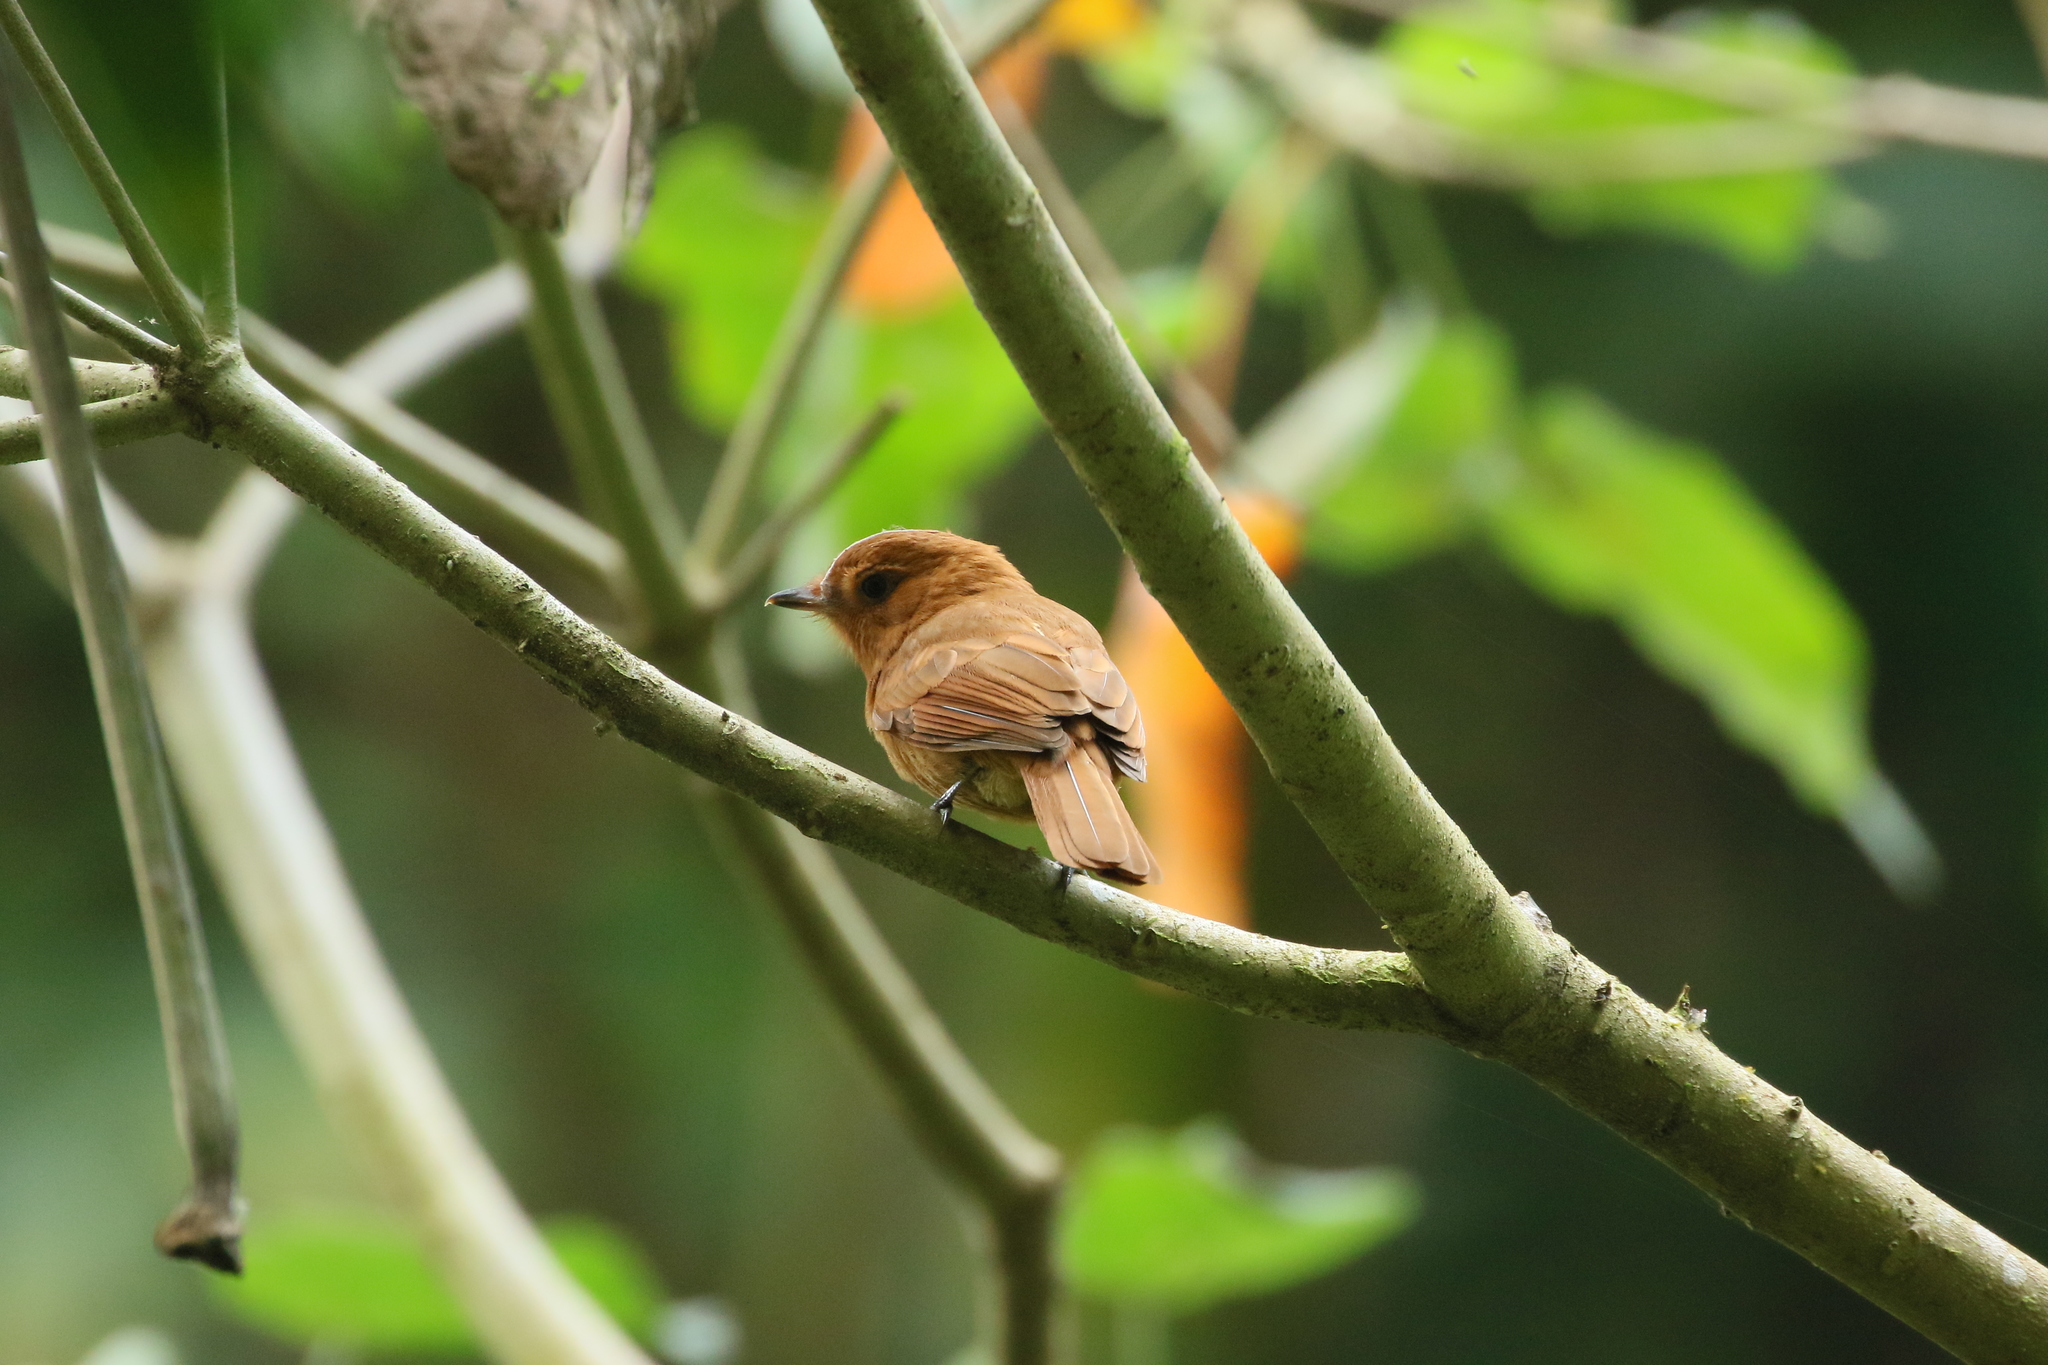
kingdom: Animalia
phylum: Chordata
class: Aves
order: Passeriformes
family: Tyrannidae
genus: Rhytipterna
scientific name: Rhytipterna holerythra
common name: Rufous mourner
